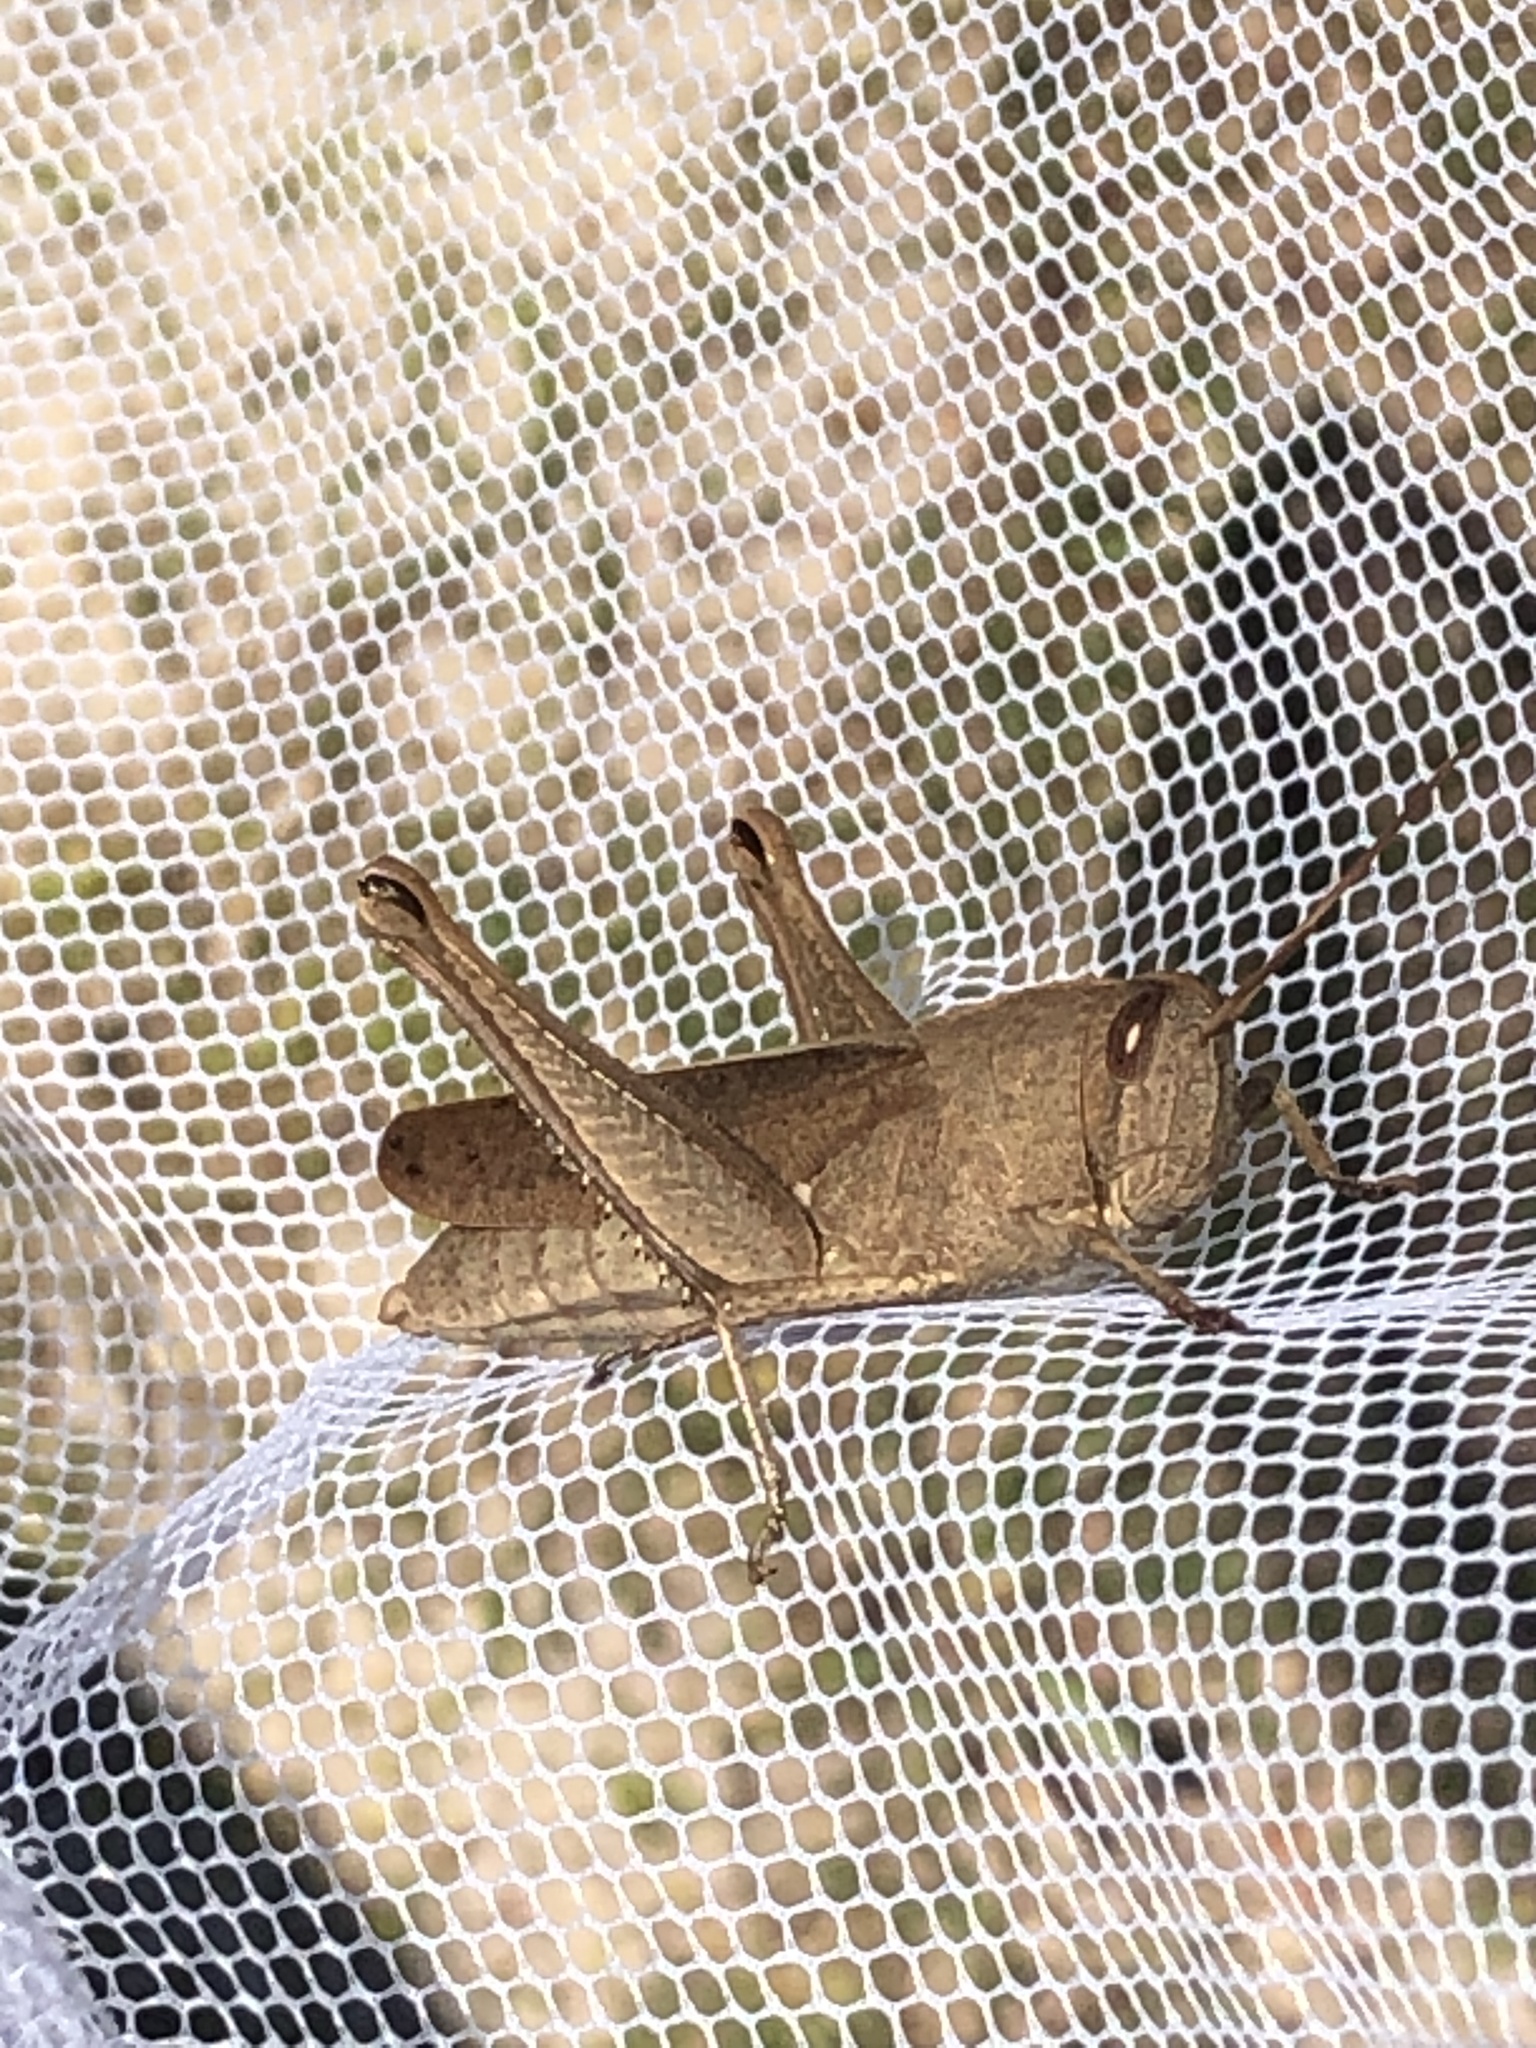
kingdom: Animalia
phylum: Arthropoda
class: Insecta
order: Orthoptera
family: Acrididae
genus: Schistocerca
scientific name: Schistocerca damnifica
